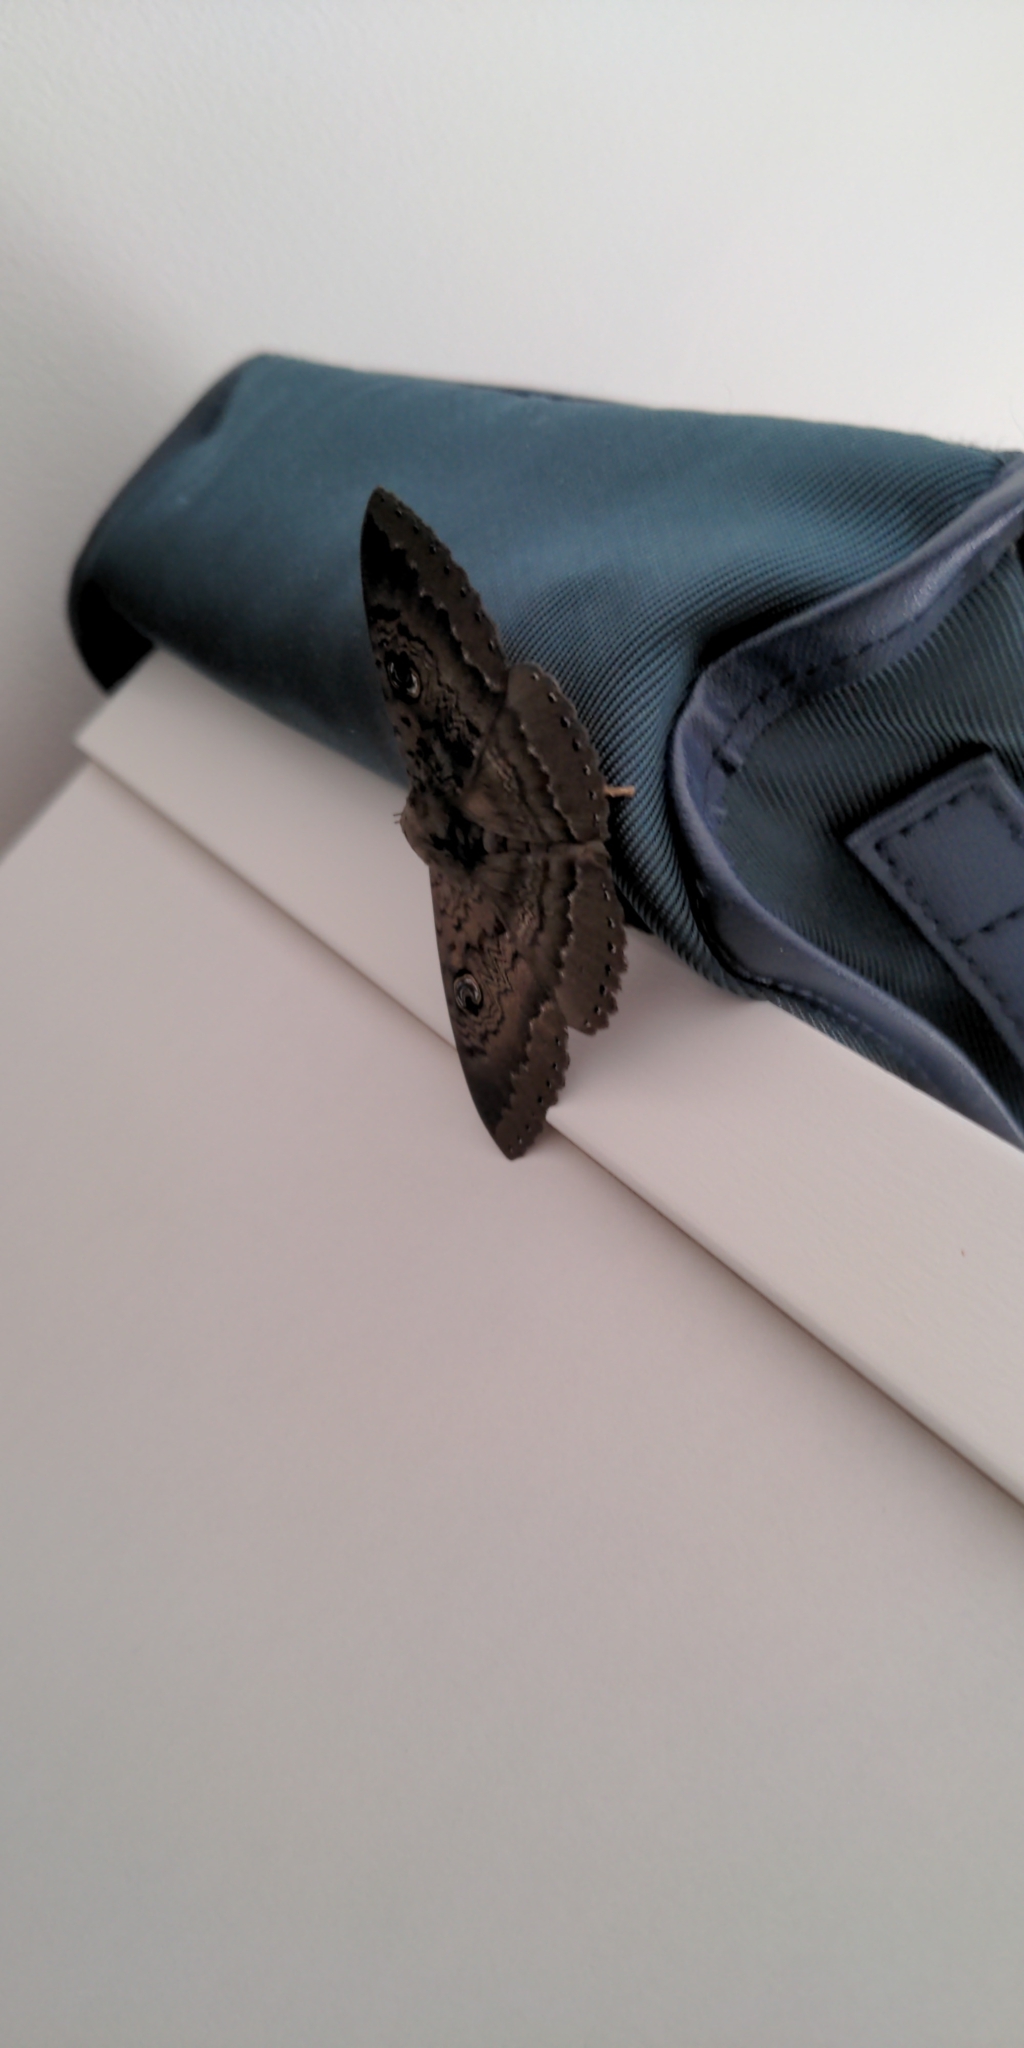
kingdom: Animalia
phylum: Arthropoda
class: Insecta
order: Lepidoptera
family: Erebidae
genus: Dasypodia
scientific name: Dasypodia cymatodes
